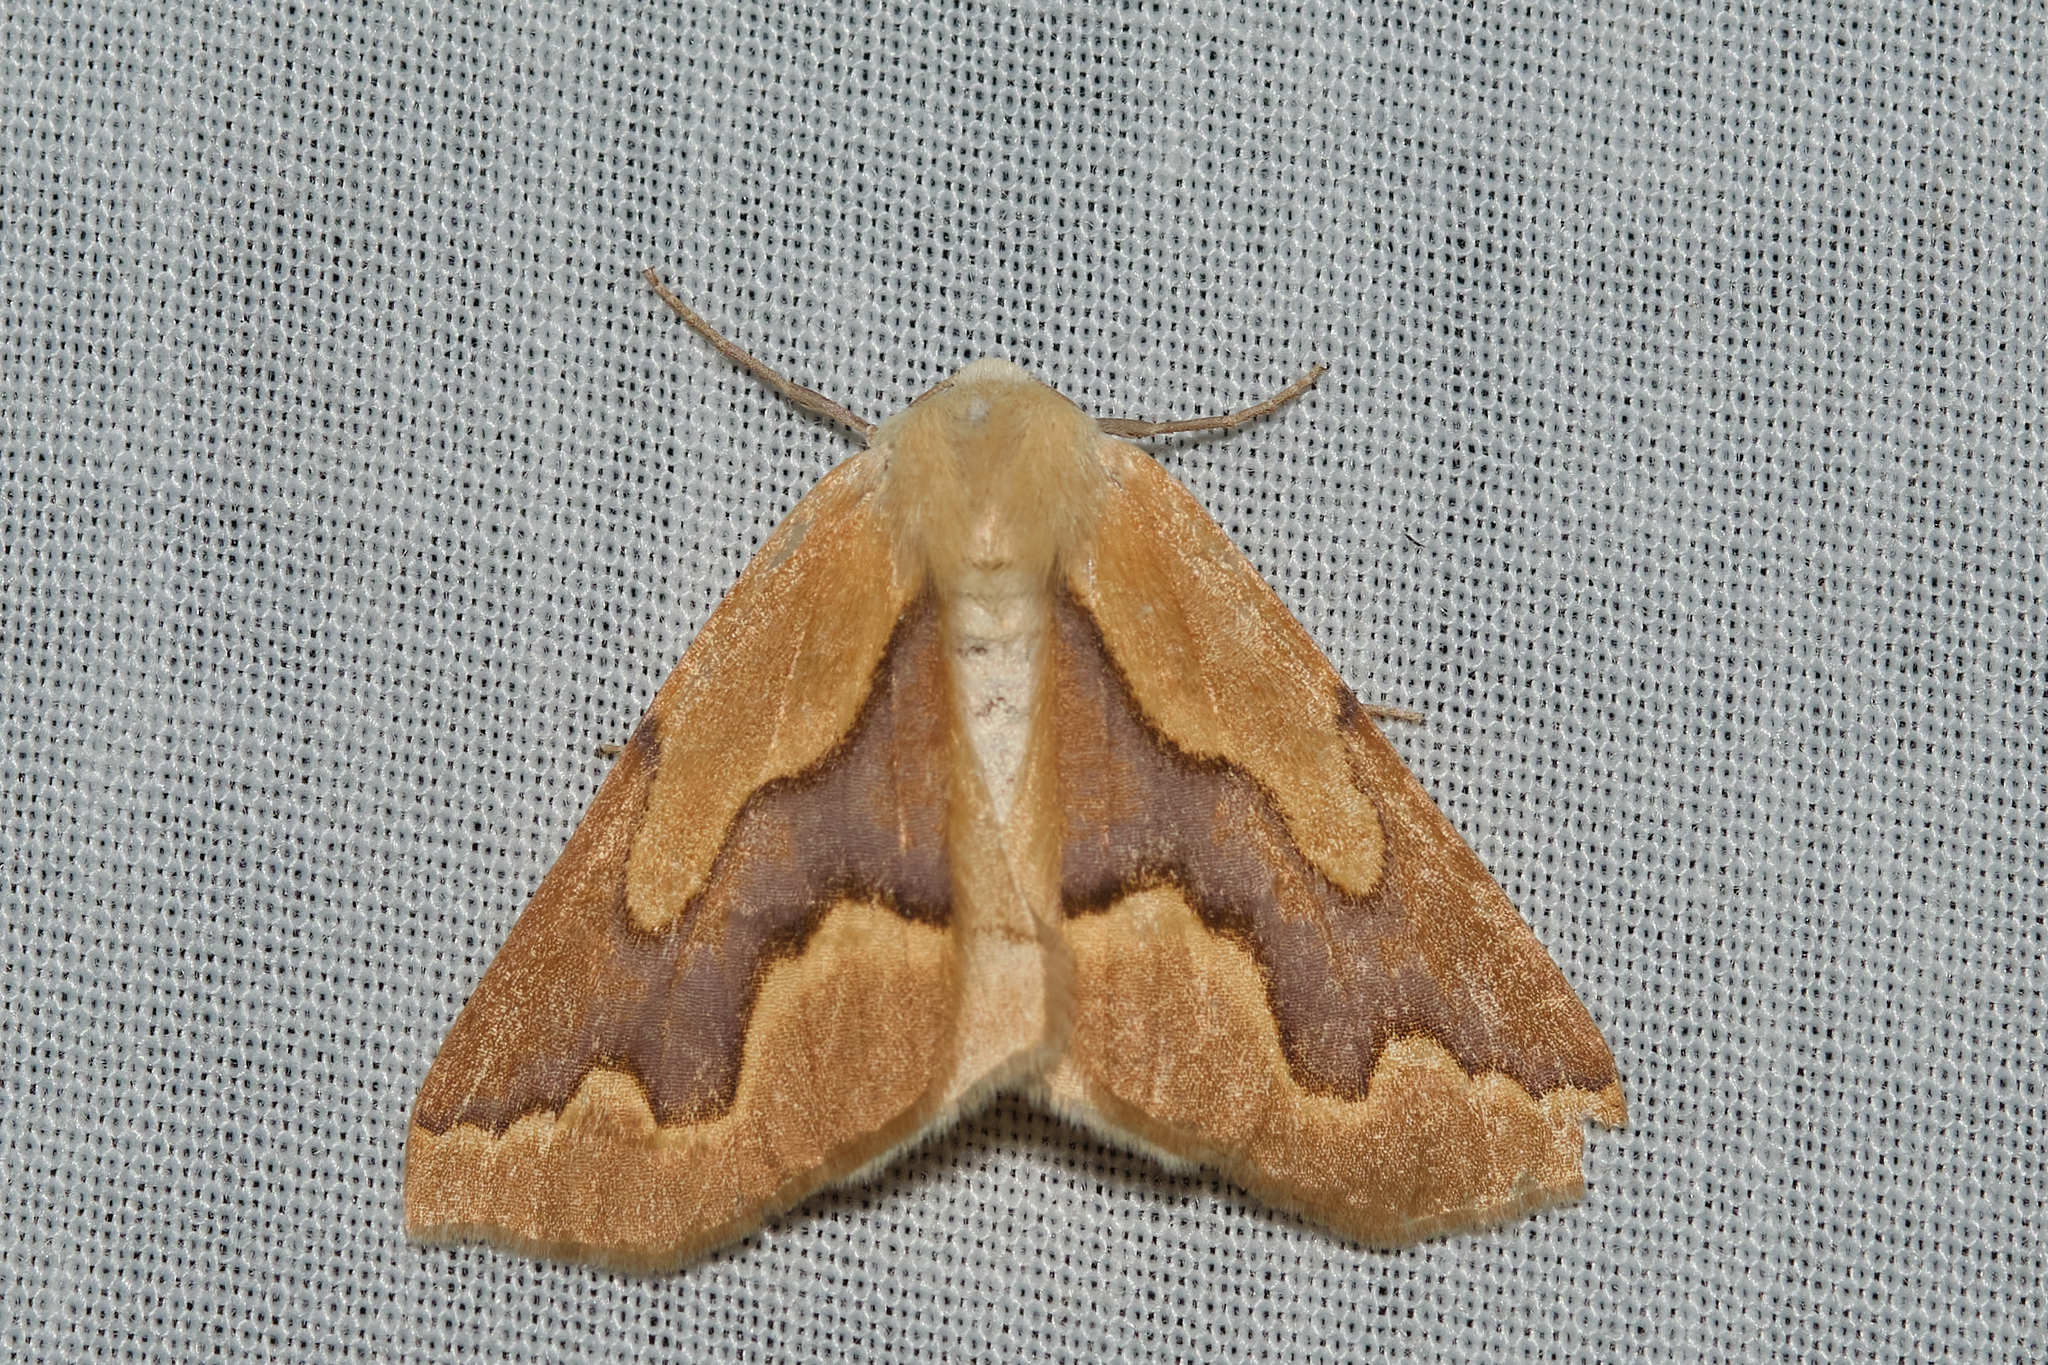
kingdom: Animalia
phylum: Arthropoda
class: Insecta
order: Lepidoptera
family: Geometridae
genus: Sabulodes
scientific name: Sabulodes edwardsata
